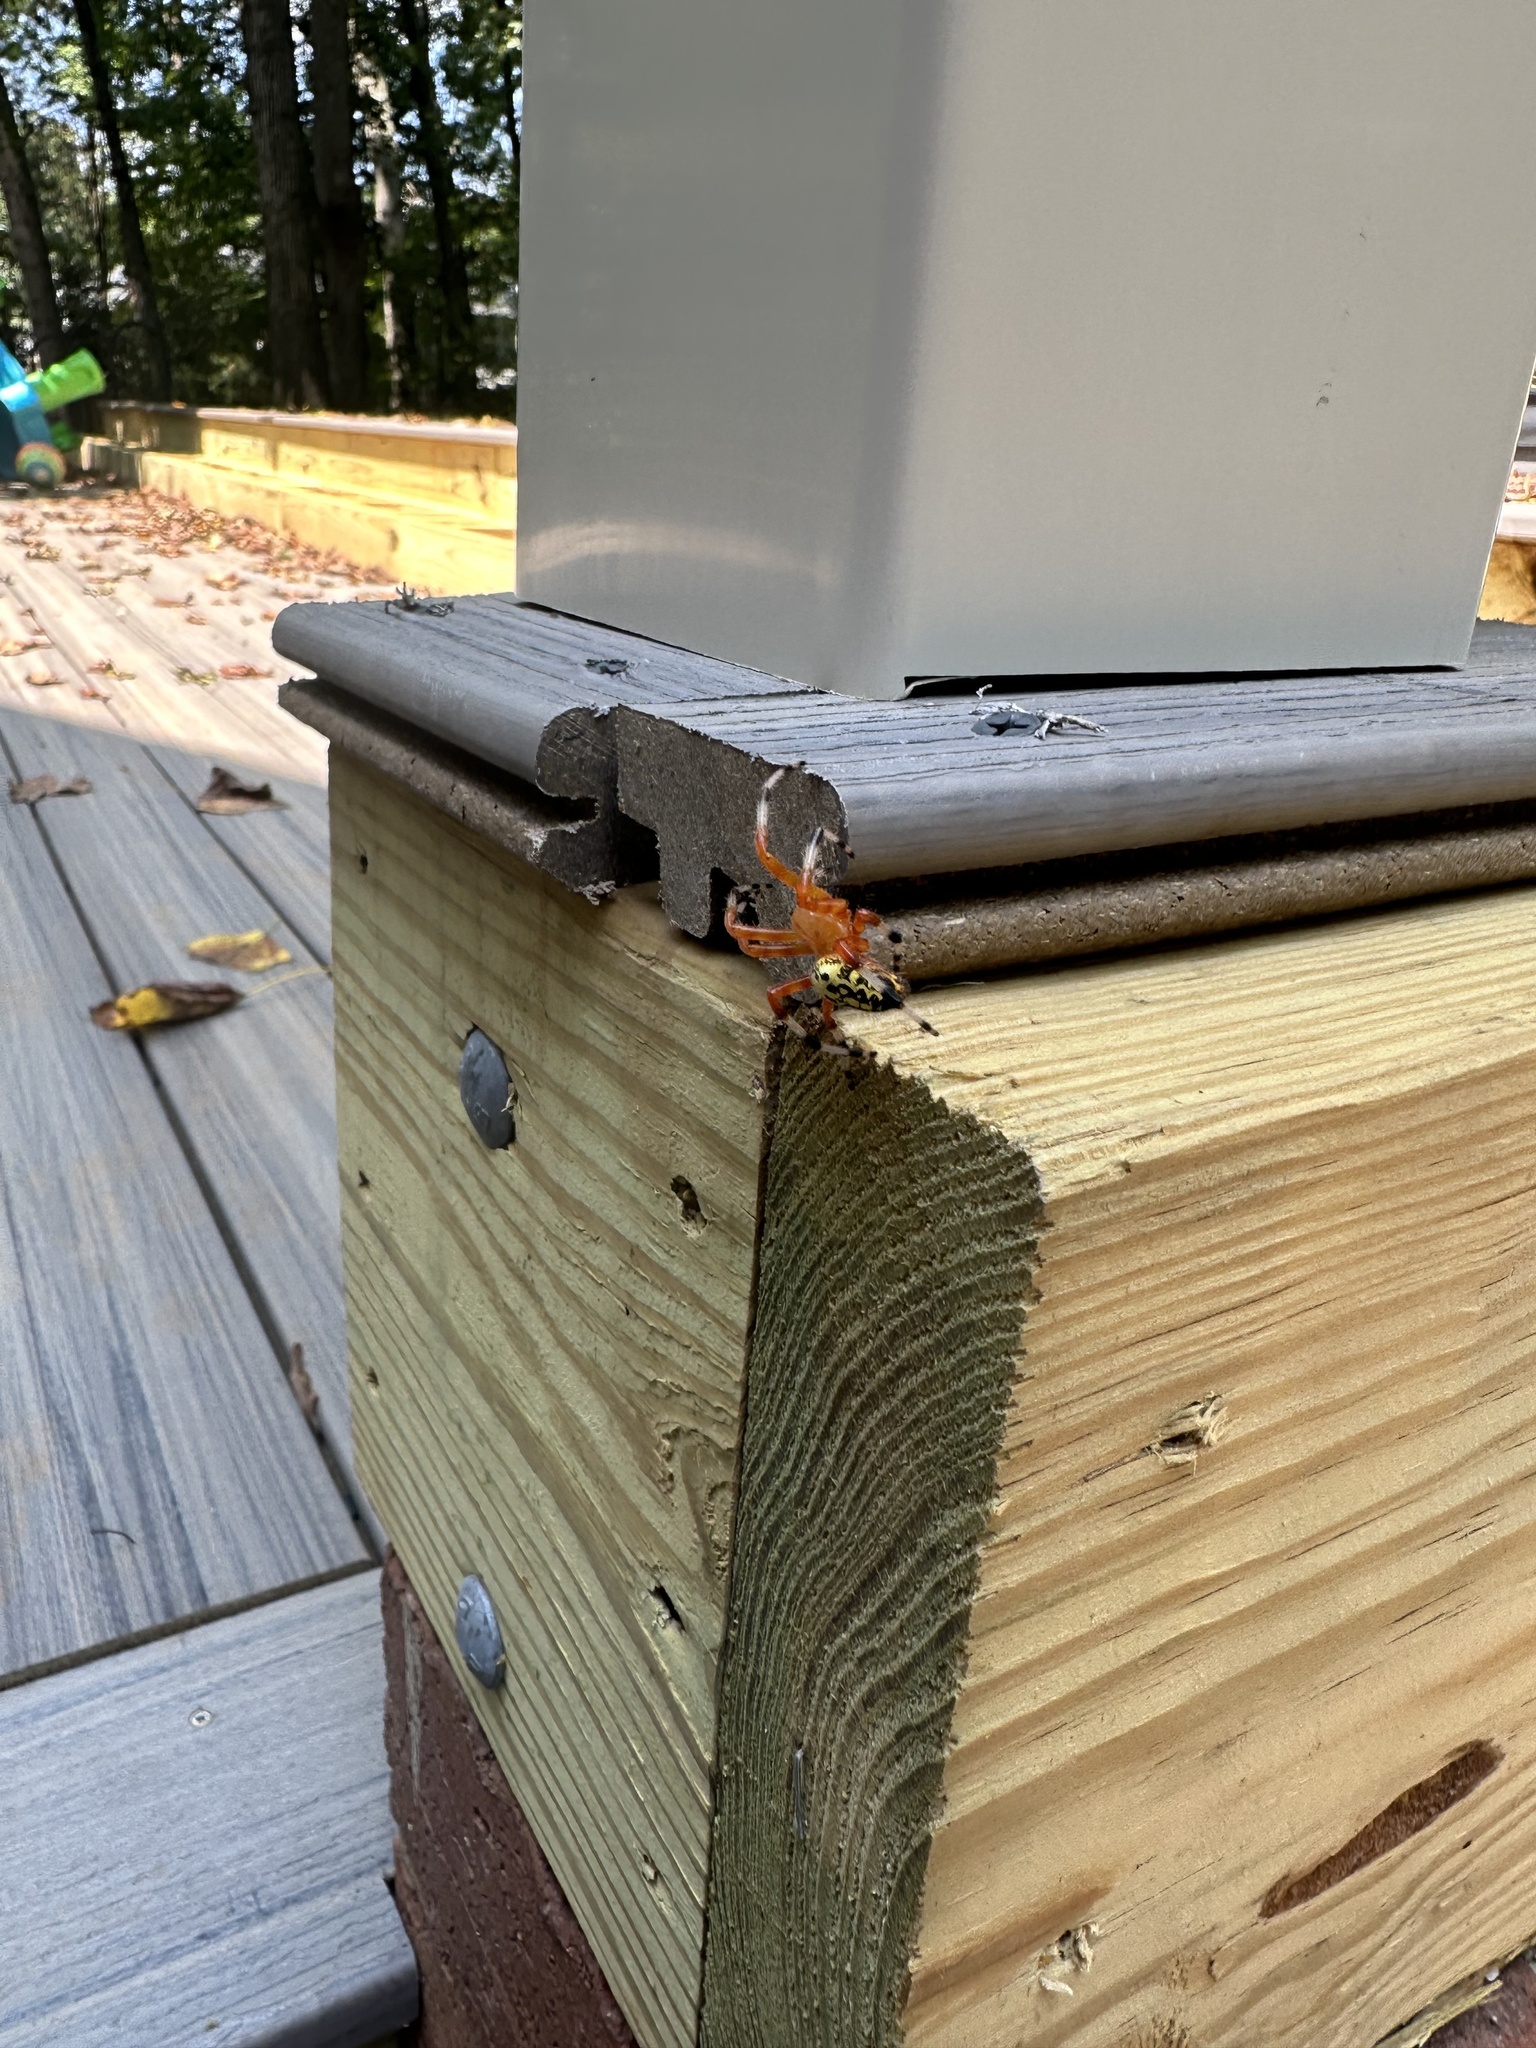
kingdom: Animalia
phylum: Arthropoda
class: Arachnida
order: Araneae
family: Araneidae
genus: Araneus
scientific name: Araneus marmoreus
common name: Marbled orbweaver
